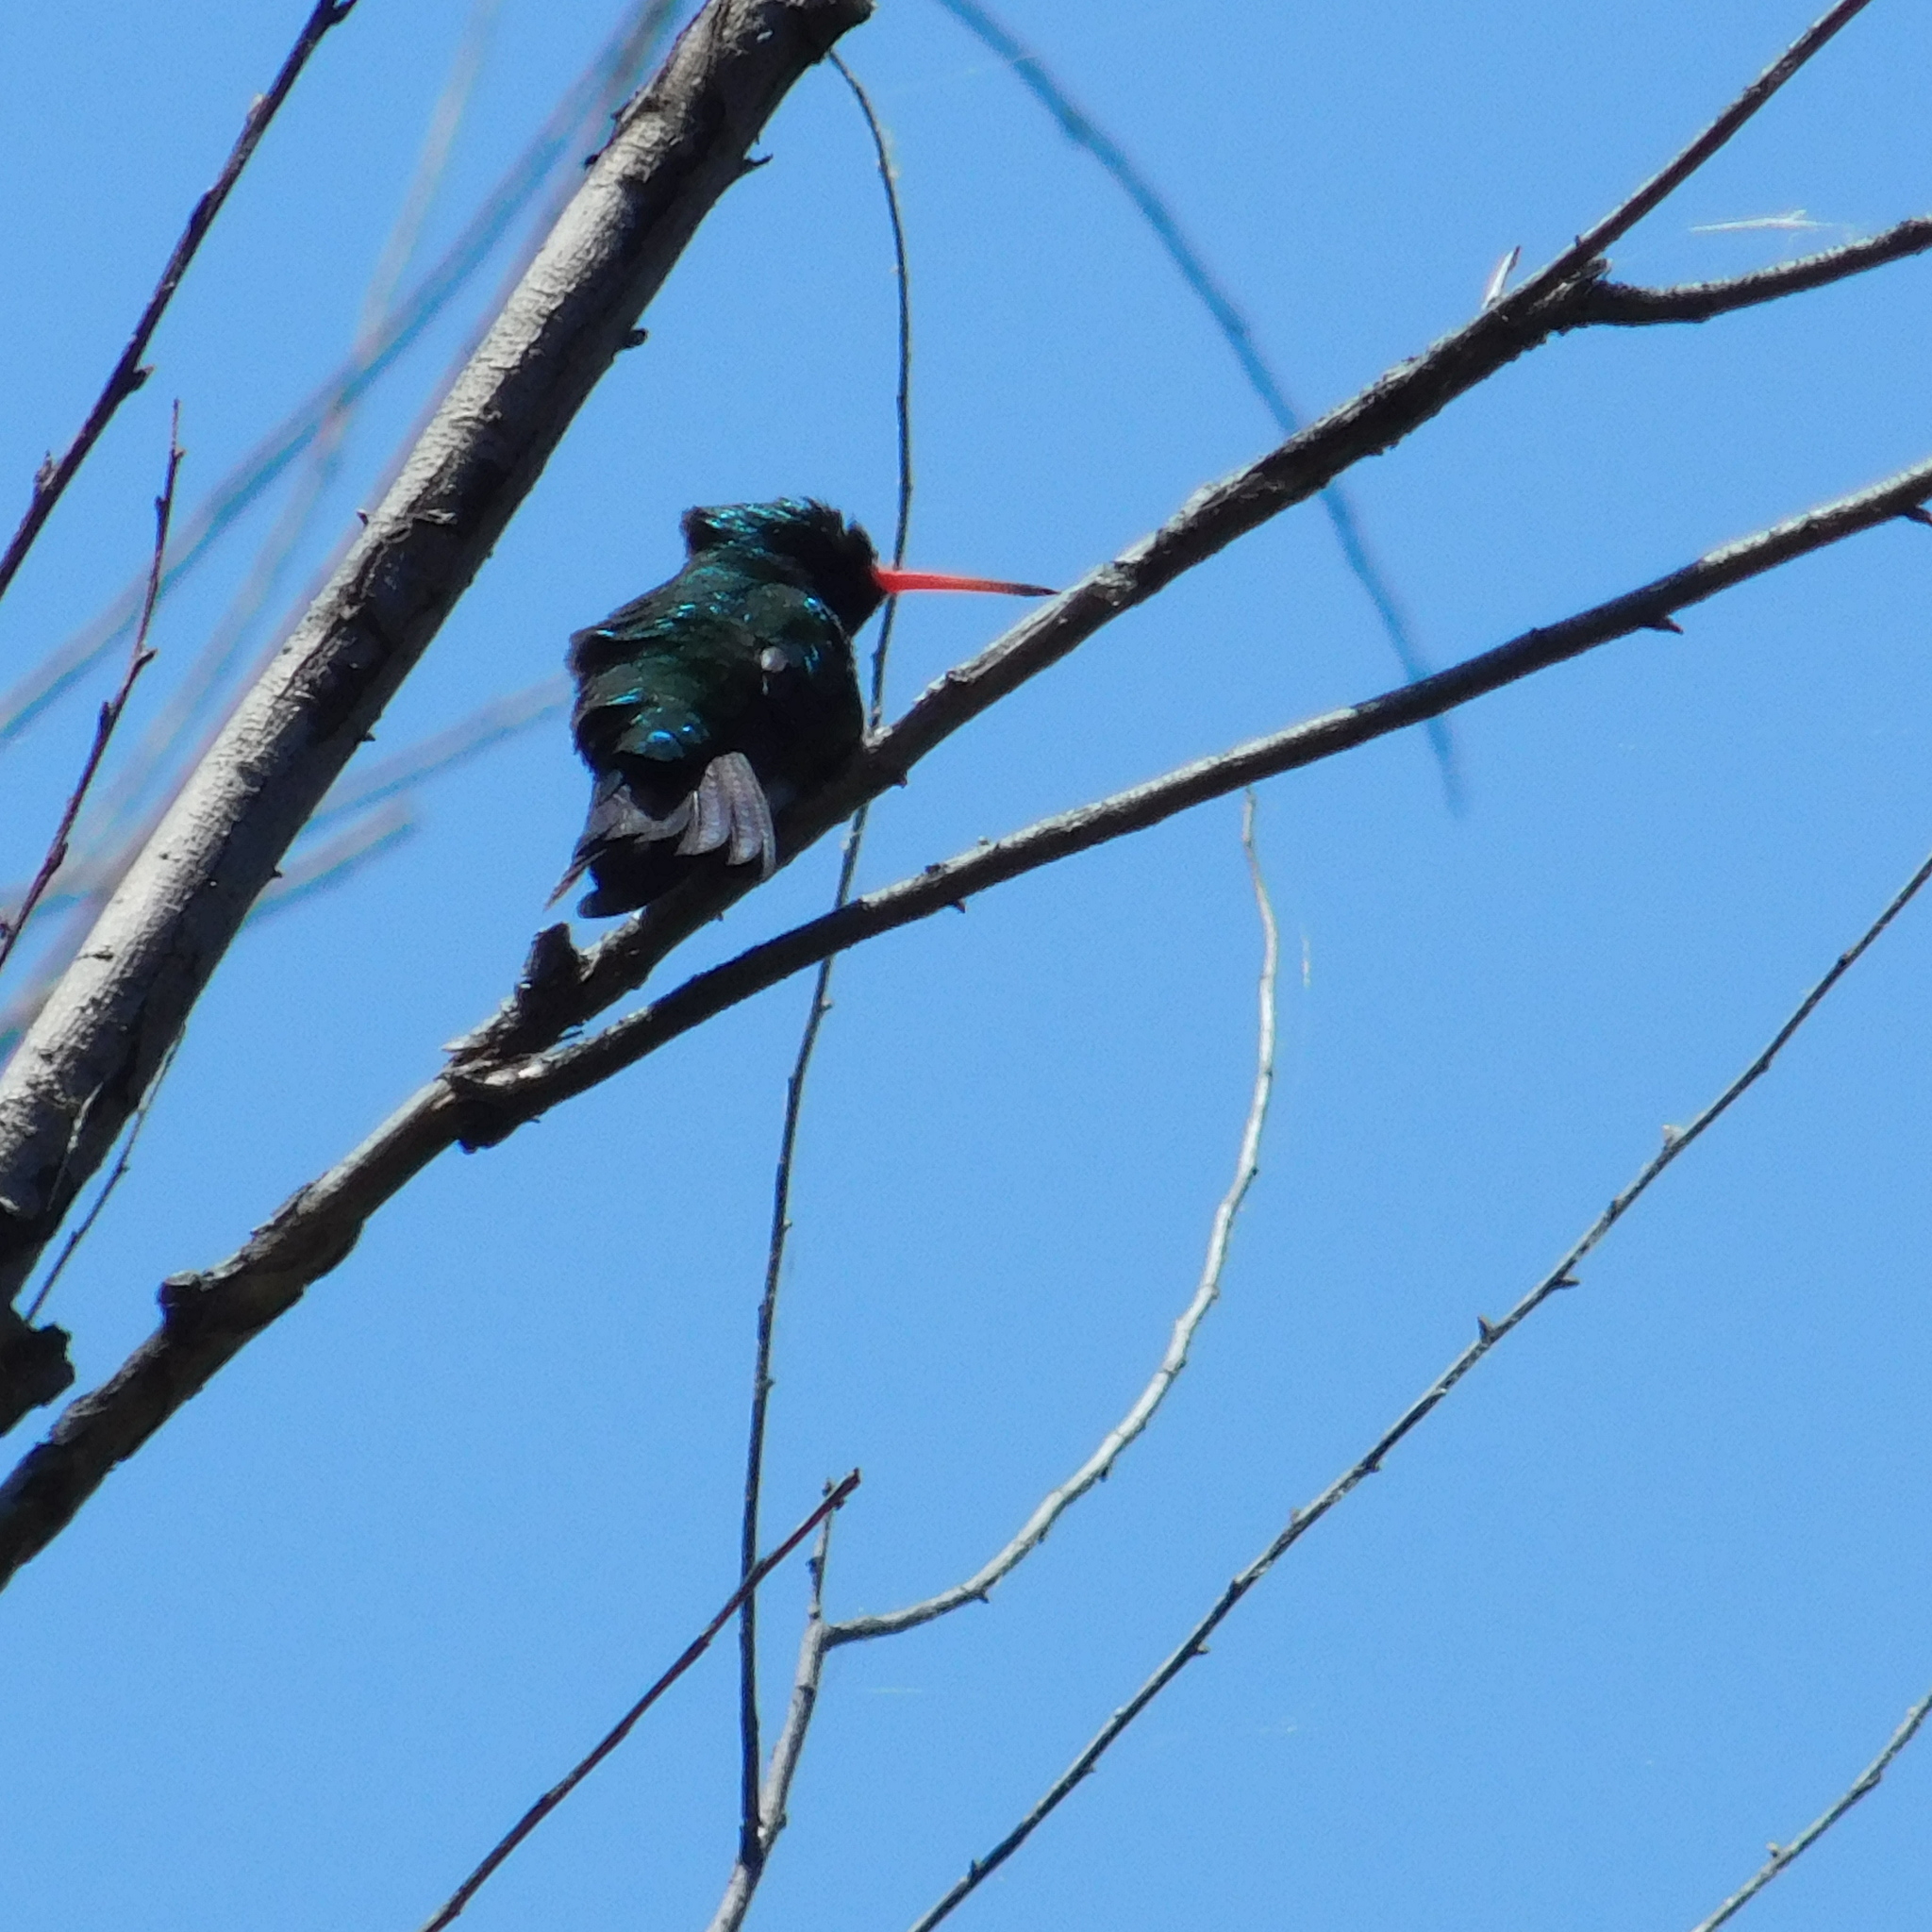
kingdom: Animalia
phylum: Chordata
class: Aves
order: Apodiformes
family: Trochilidae
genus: Chlorostilbon
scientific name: Chlorostilbon lucidus
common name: Glittering-bellied emerald
